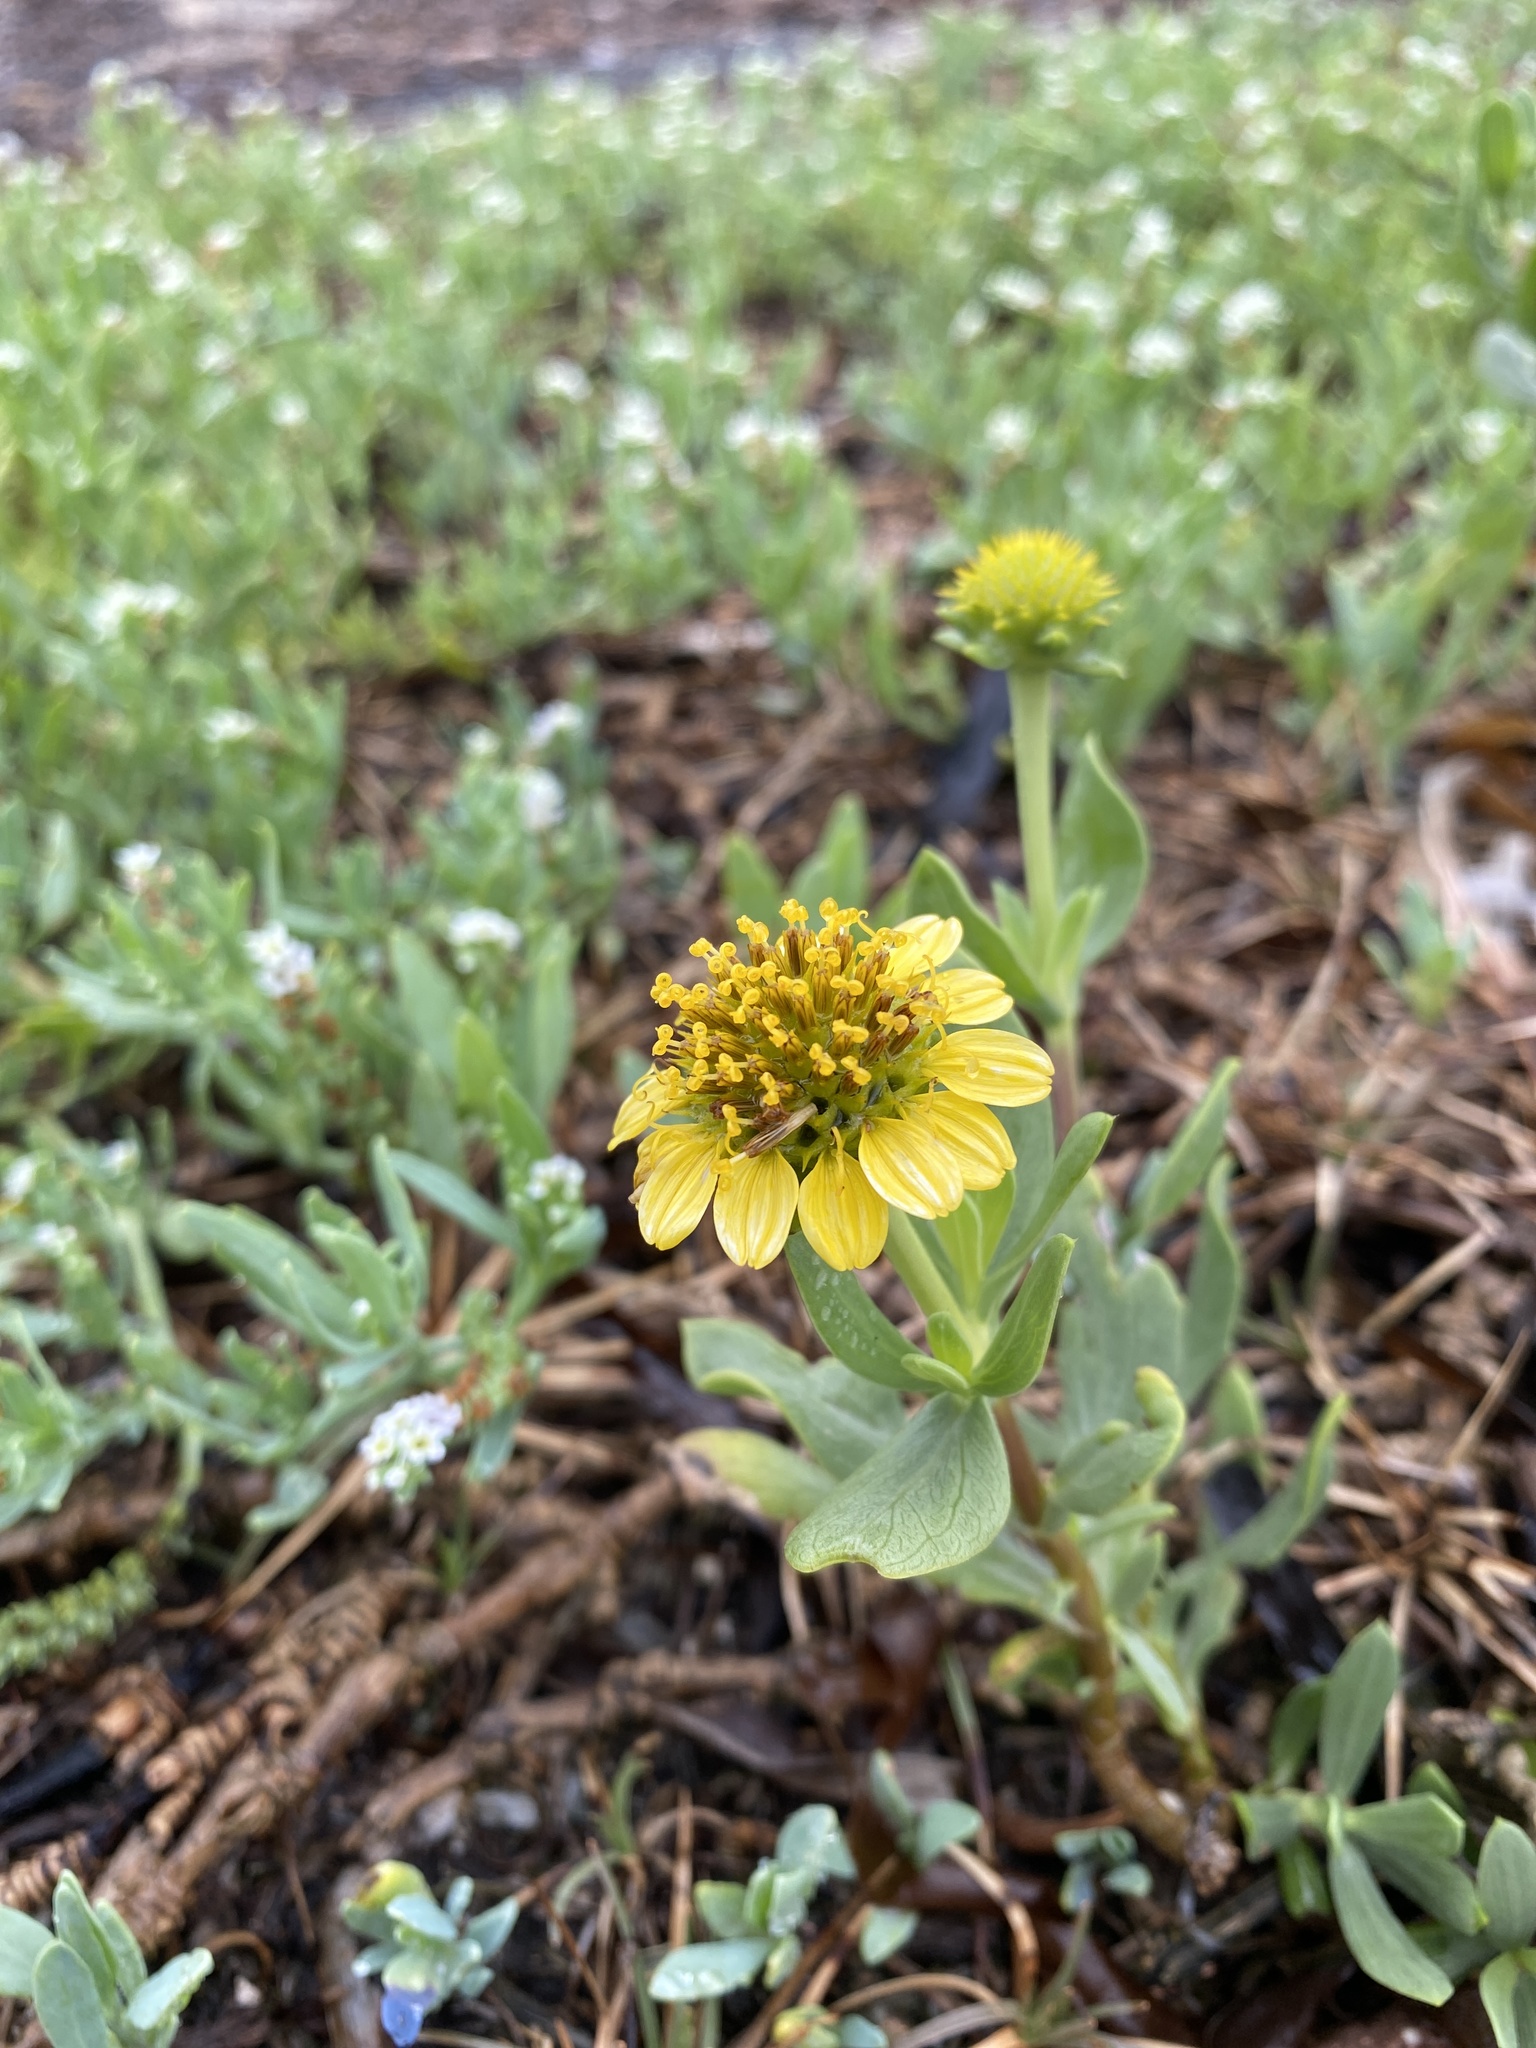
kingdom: Plantae
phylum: Tracheophyta
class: Magnoliopsida
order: Asterales
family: Asteraceae
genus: Borrichia
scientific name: Borrichia frutescens
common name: Sea oxeye
